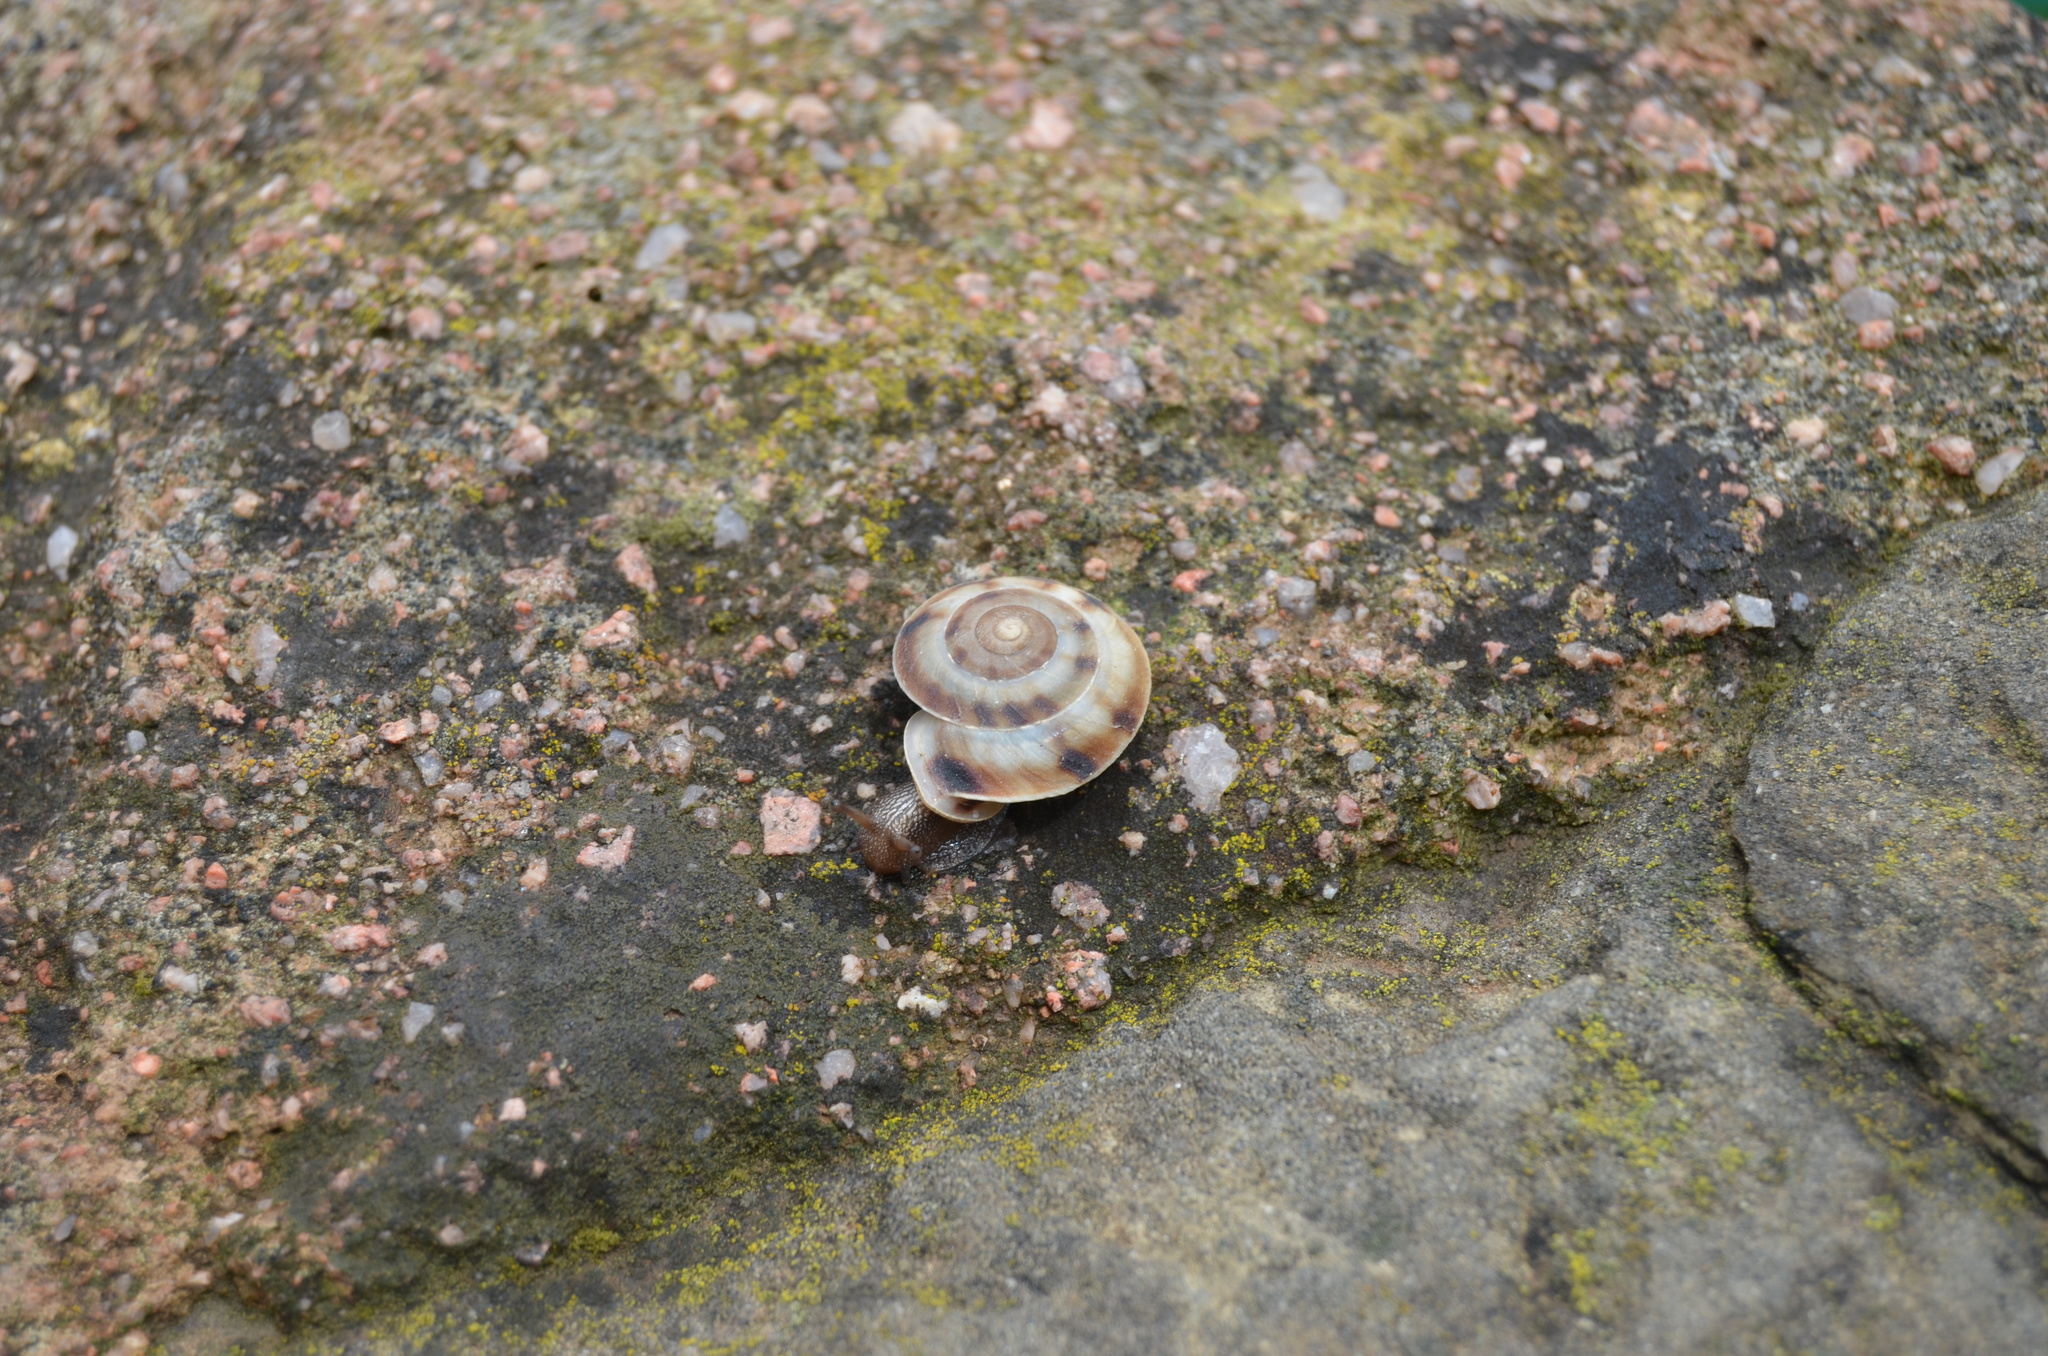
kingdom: Animalia
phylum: Mollusca
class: Gastropoda
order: Stylommatophora
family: Helicidae
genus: Helicigona
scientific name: Helicigona lapicida
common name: Lapidary snail
